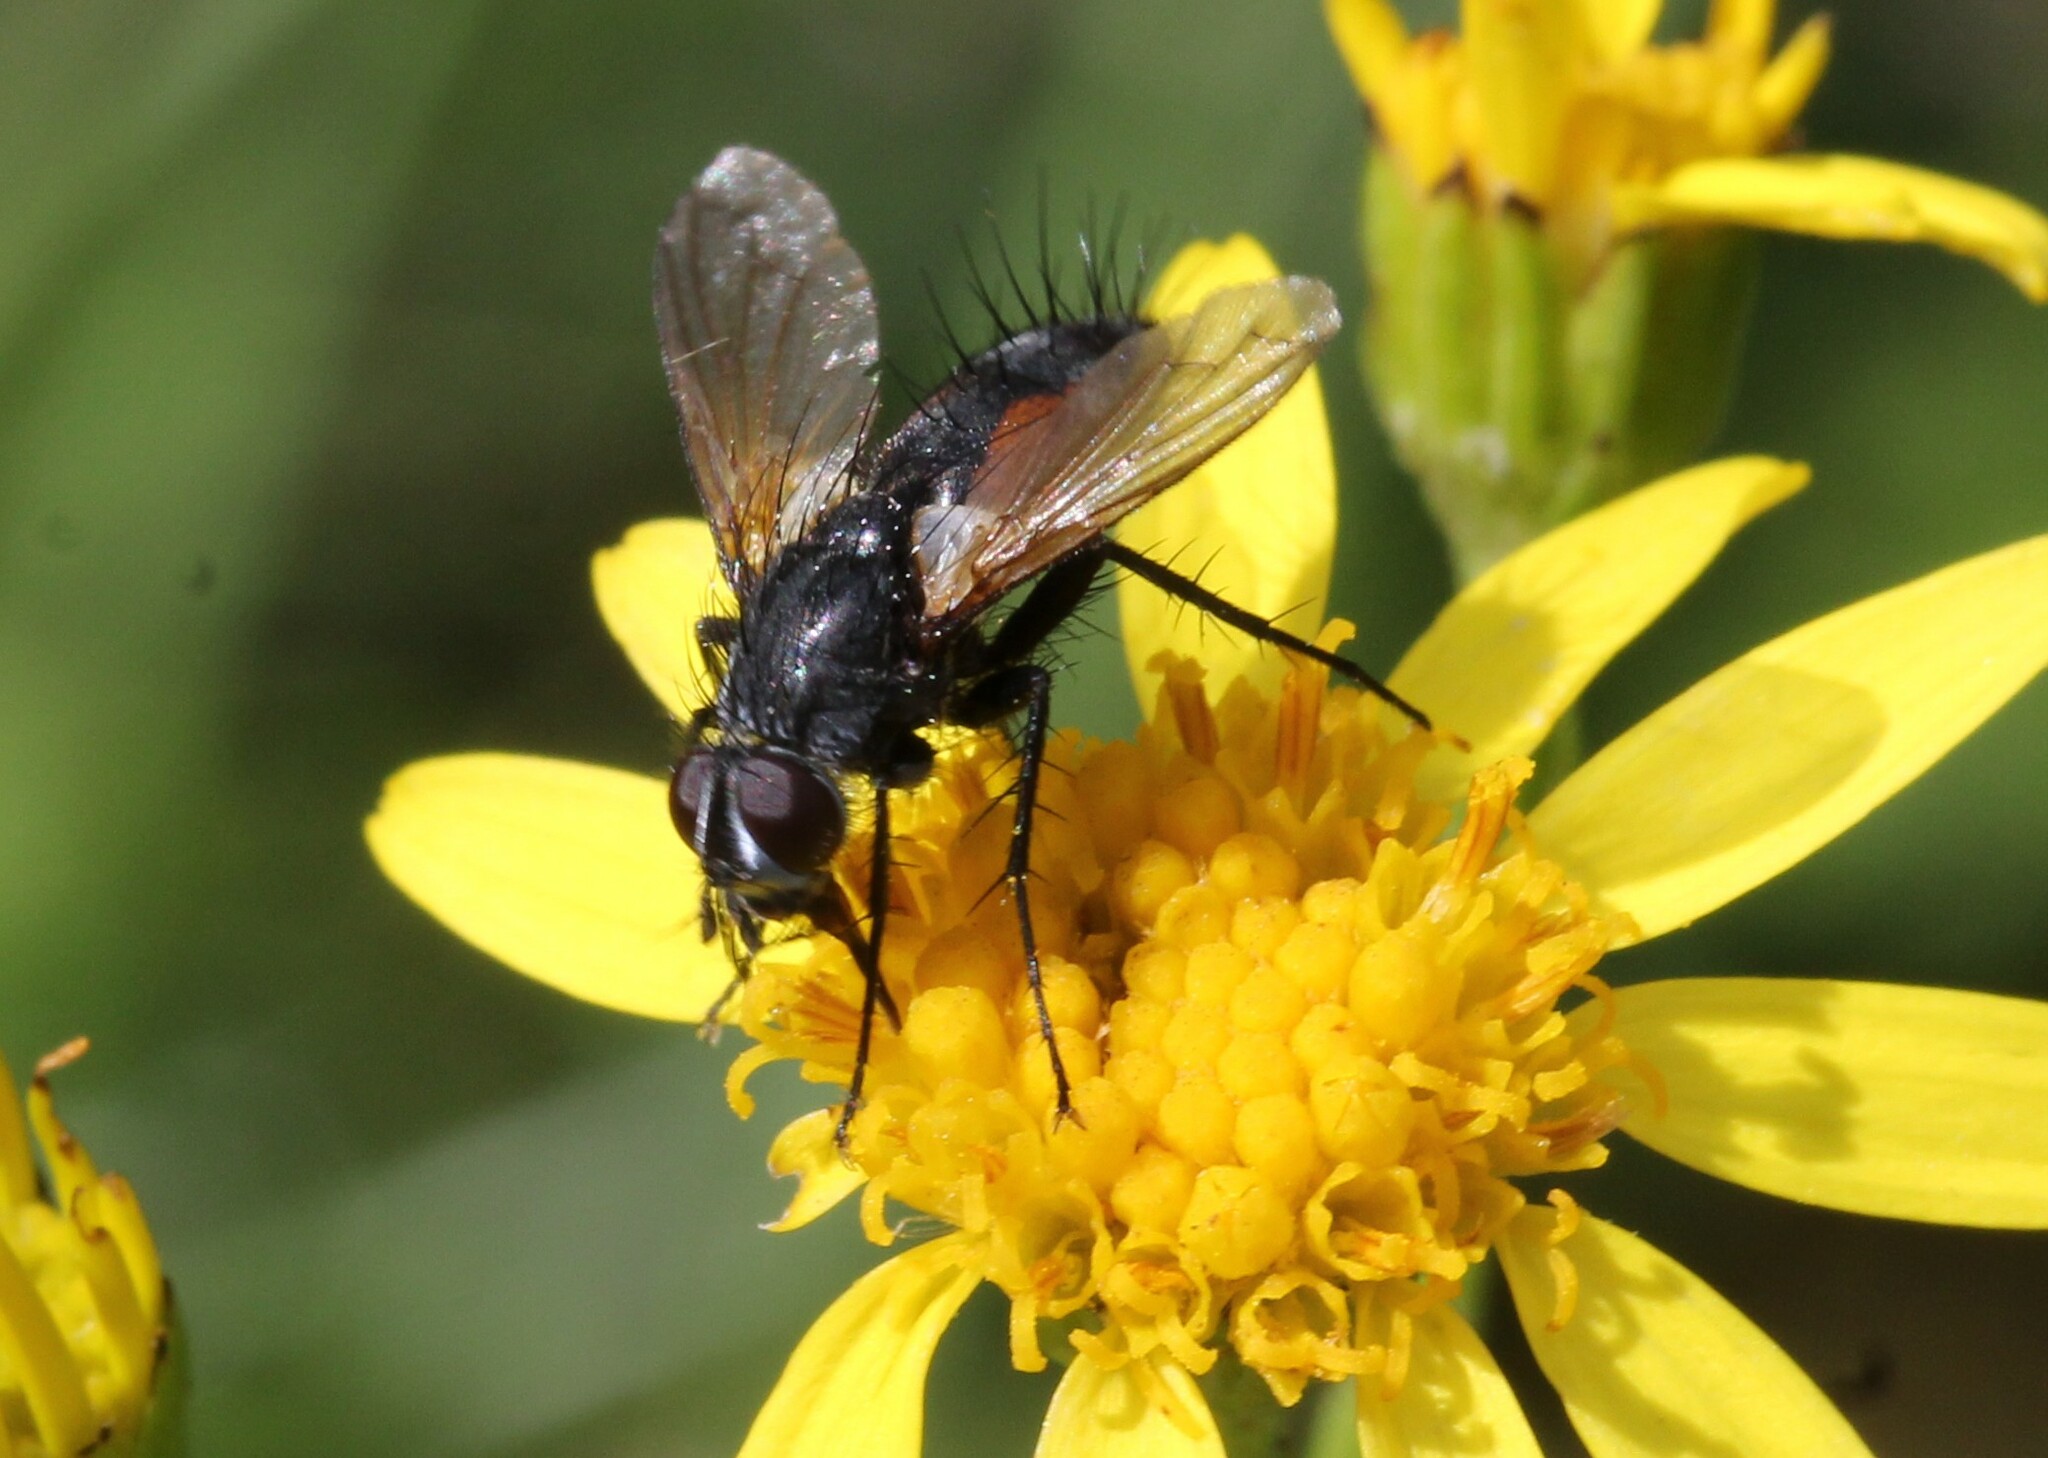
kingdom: Animalia
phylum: Arthropoda
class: Insecta
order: Diptera
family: Tachinidae
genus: Eriothrix
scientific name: Eriothrix rufomaculatus
